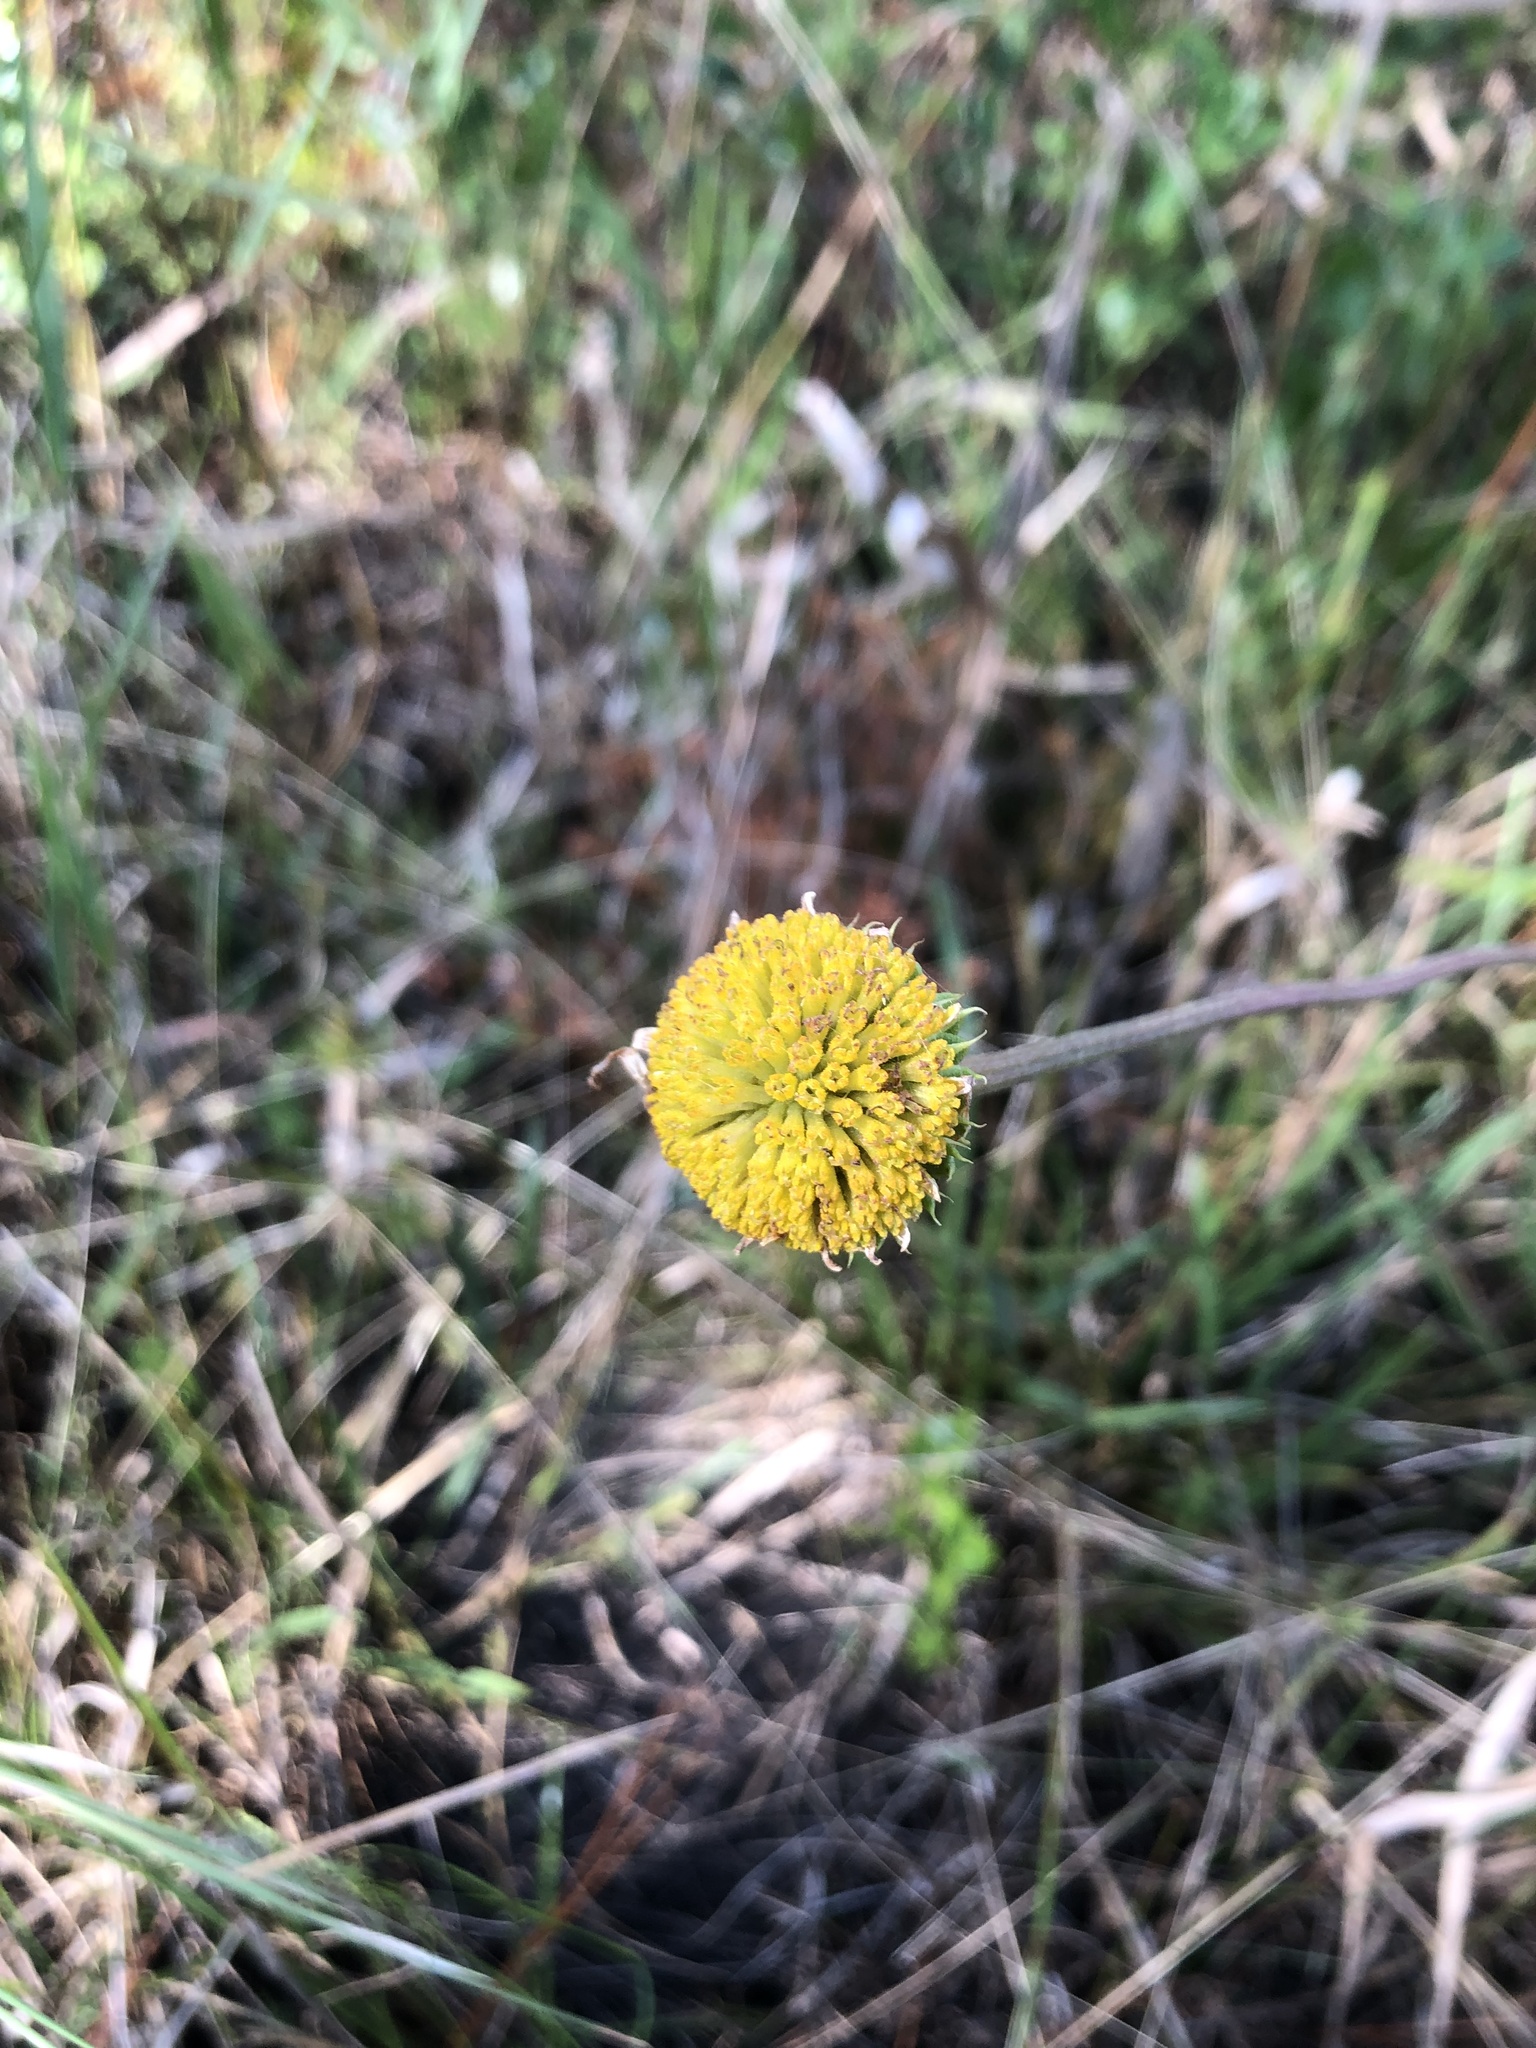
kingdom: Plantae
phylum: Tracheophyta
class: Magnoliopsida
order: Asterales
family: Asteraceae
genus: Balduina
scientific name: Balduina uniflora
